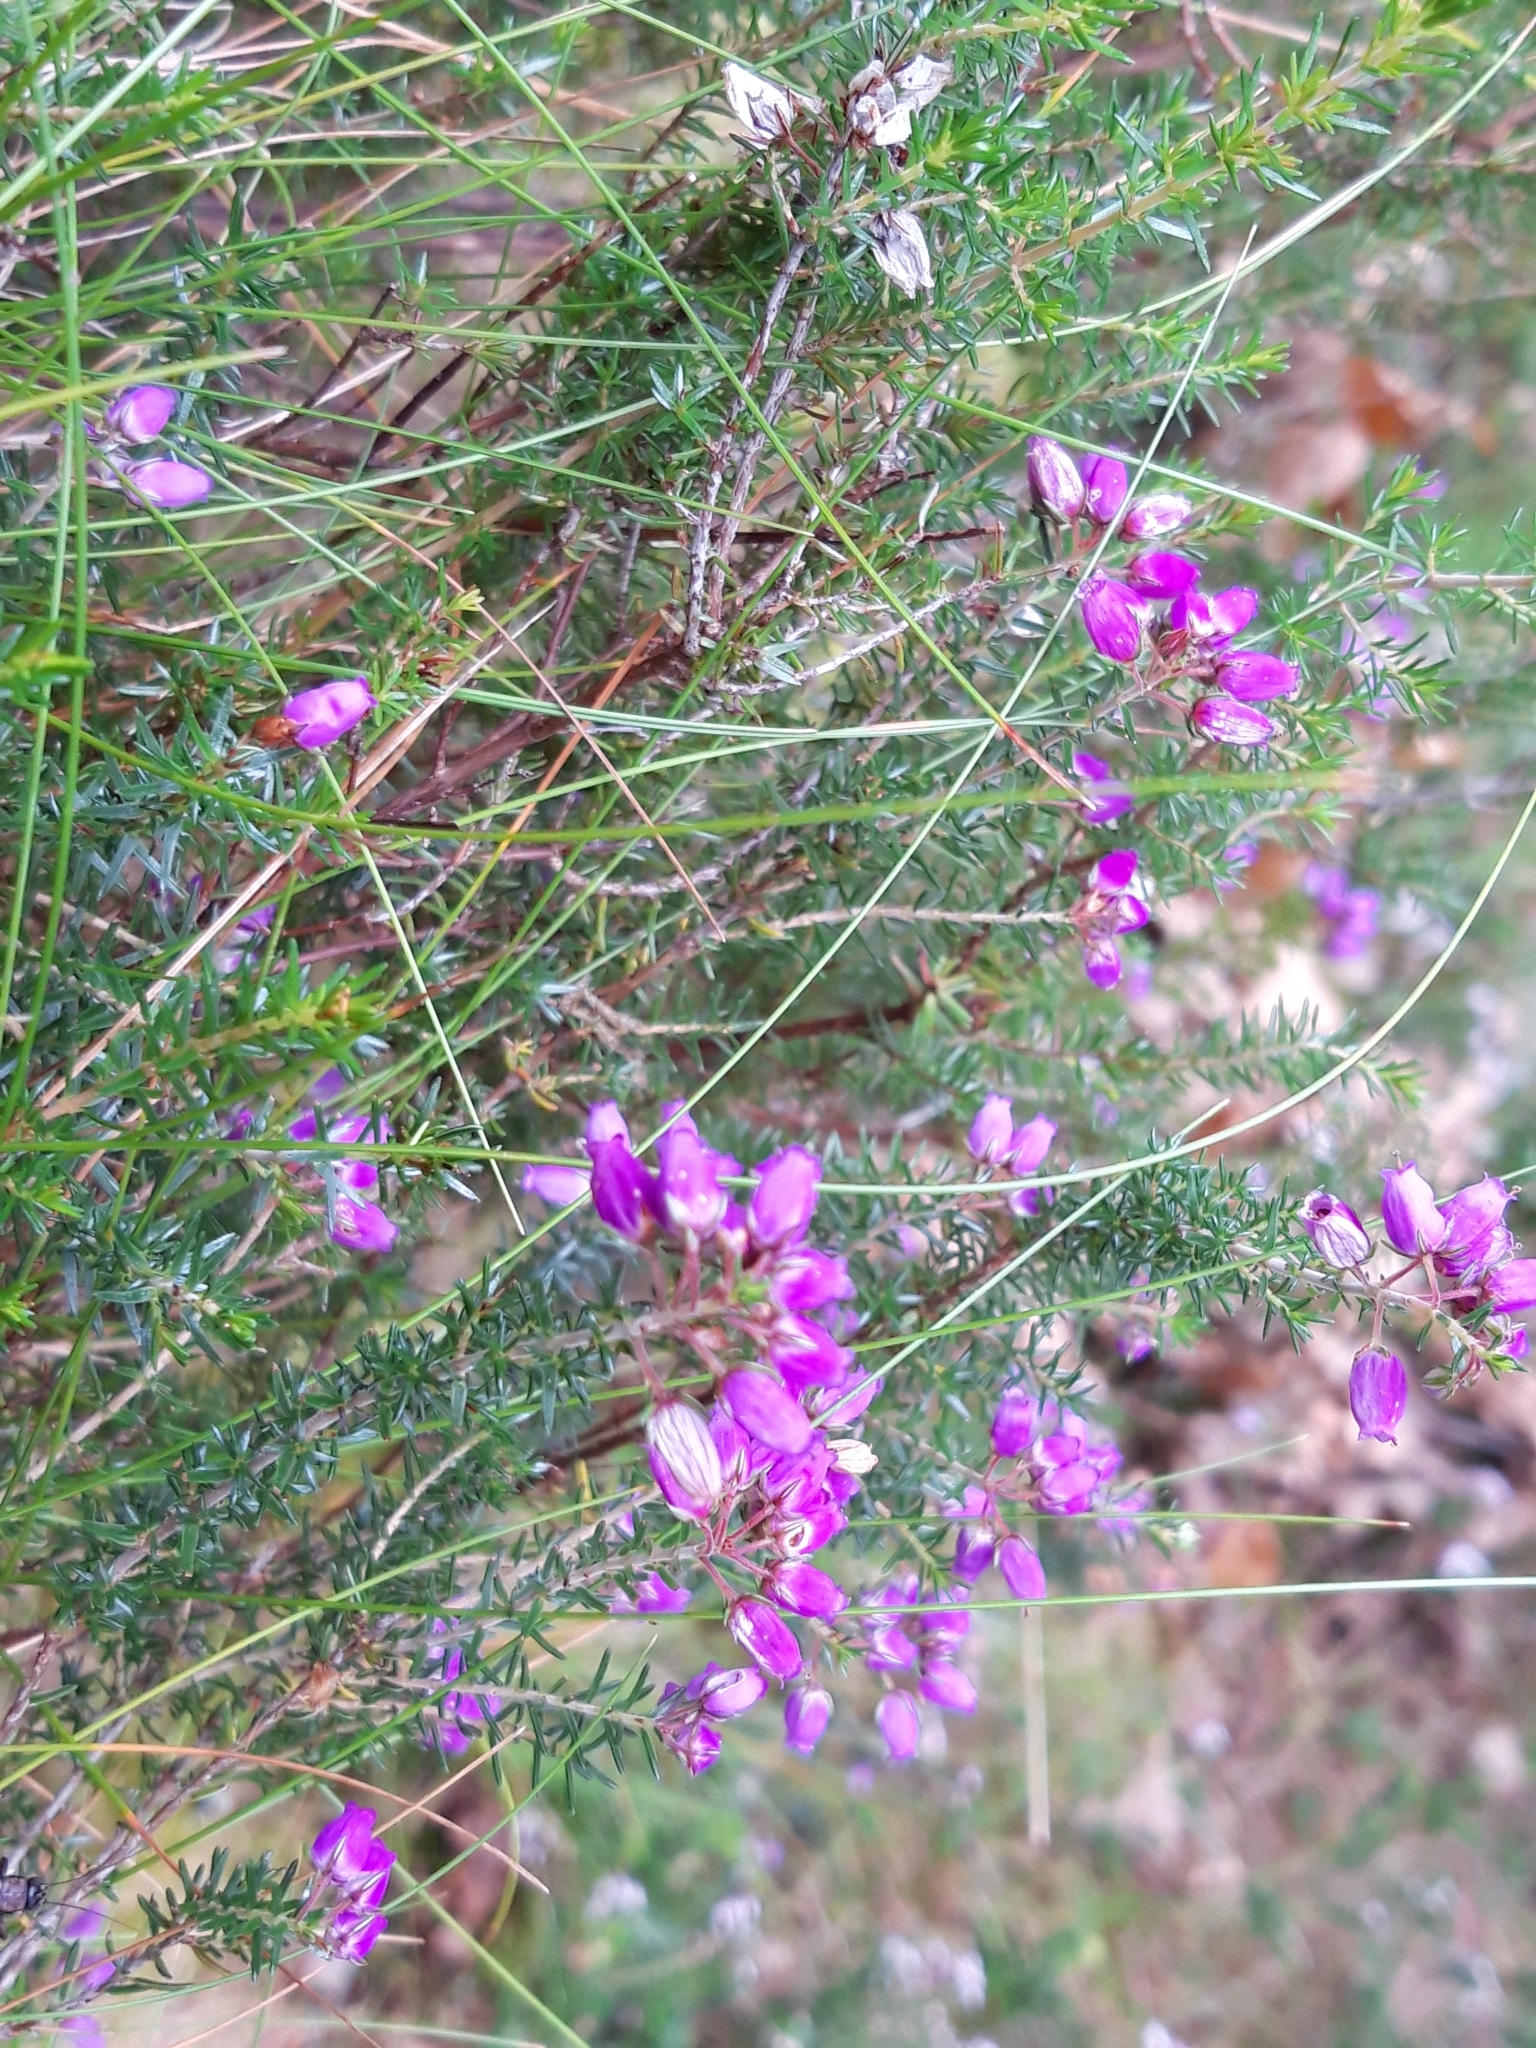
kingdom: Plantae
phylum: Tracheophyta
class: Magnoliopsida
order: Ericales
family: Ericaceae
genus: Erica
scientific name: Erica cinerea
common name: Bell heather
